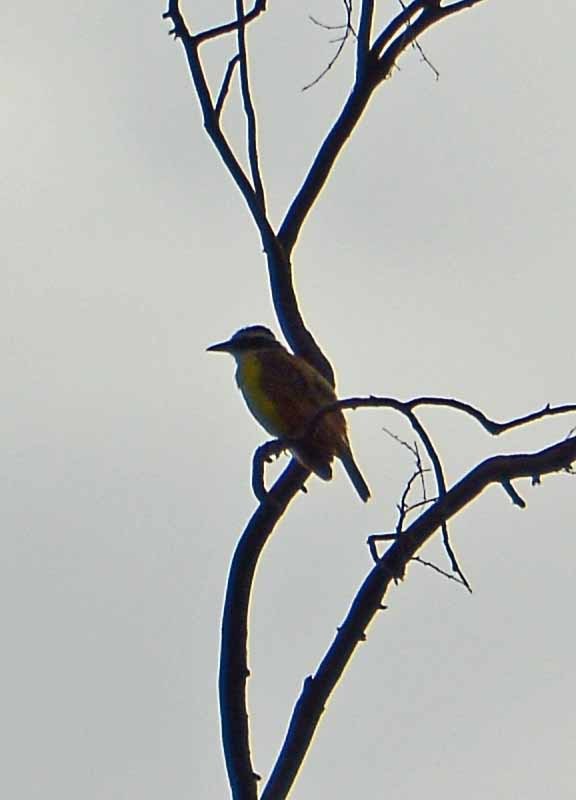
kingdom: Animalia
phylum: Chordata
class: Aves
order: Passeriformes
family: Tyrannidae
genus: Pitangus
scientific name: Pitangus sulphuratus
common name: Great kiskadee
